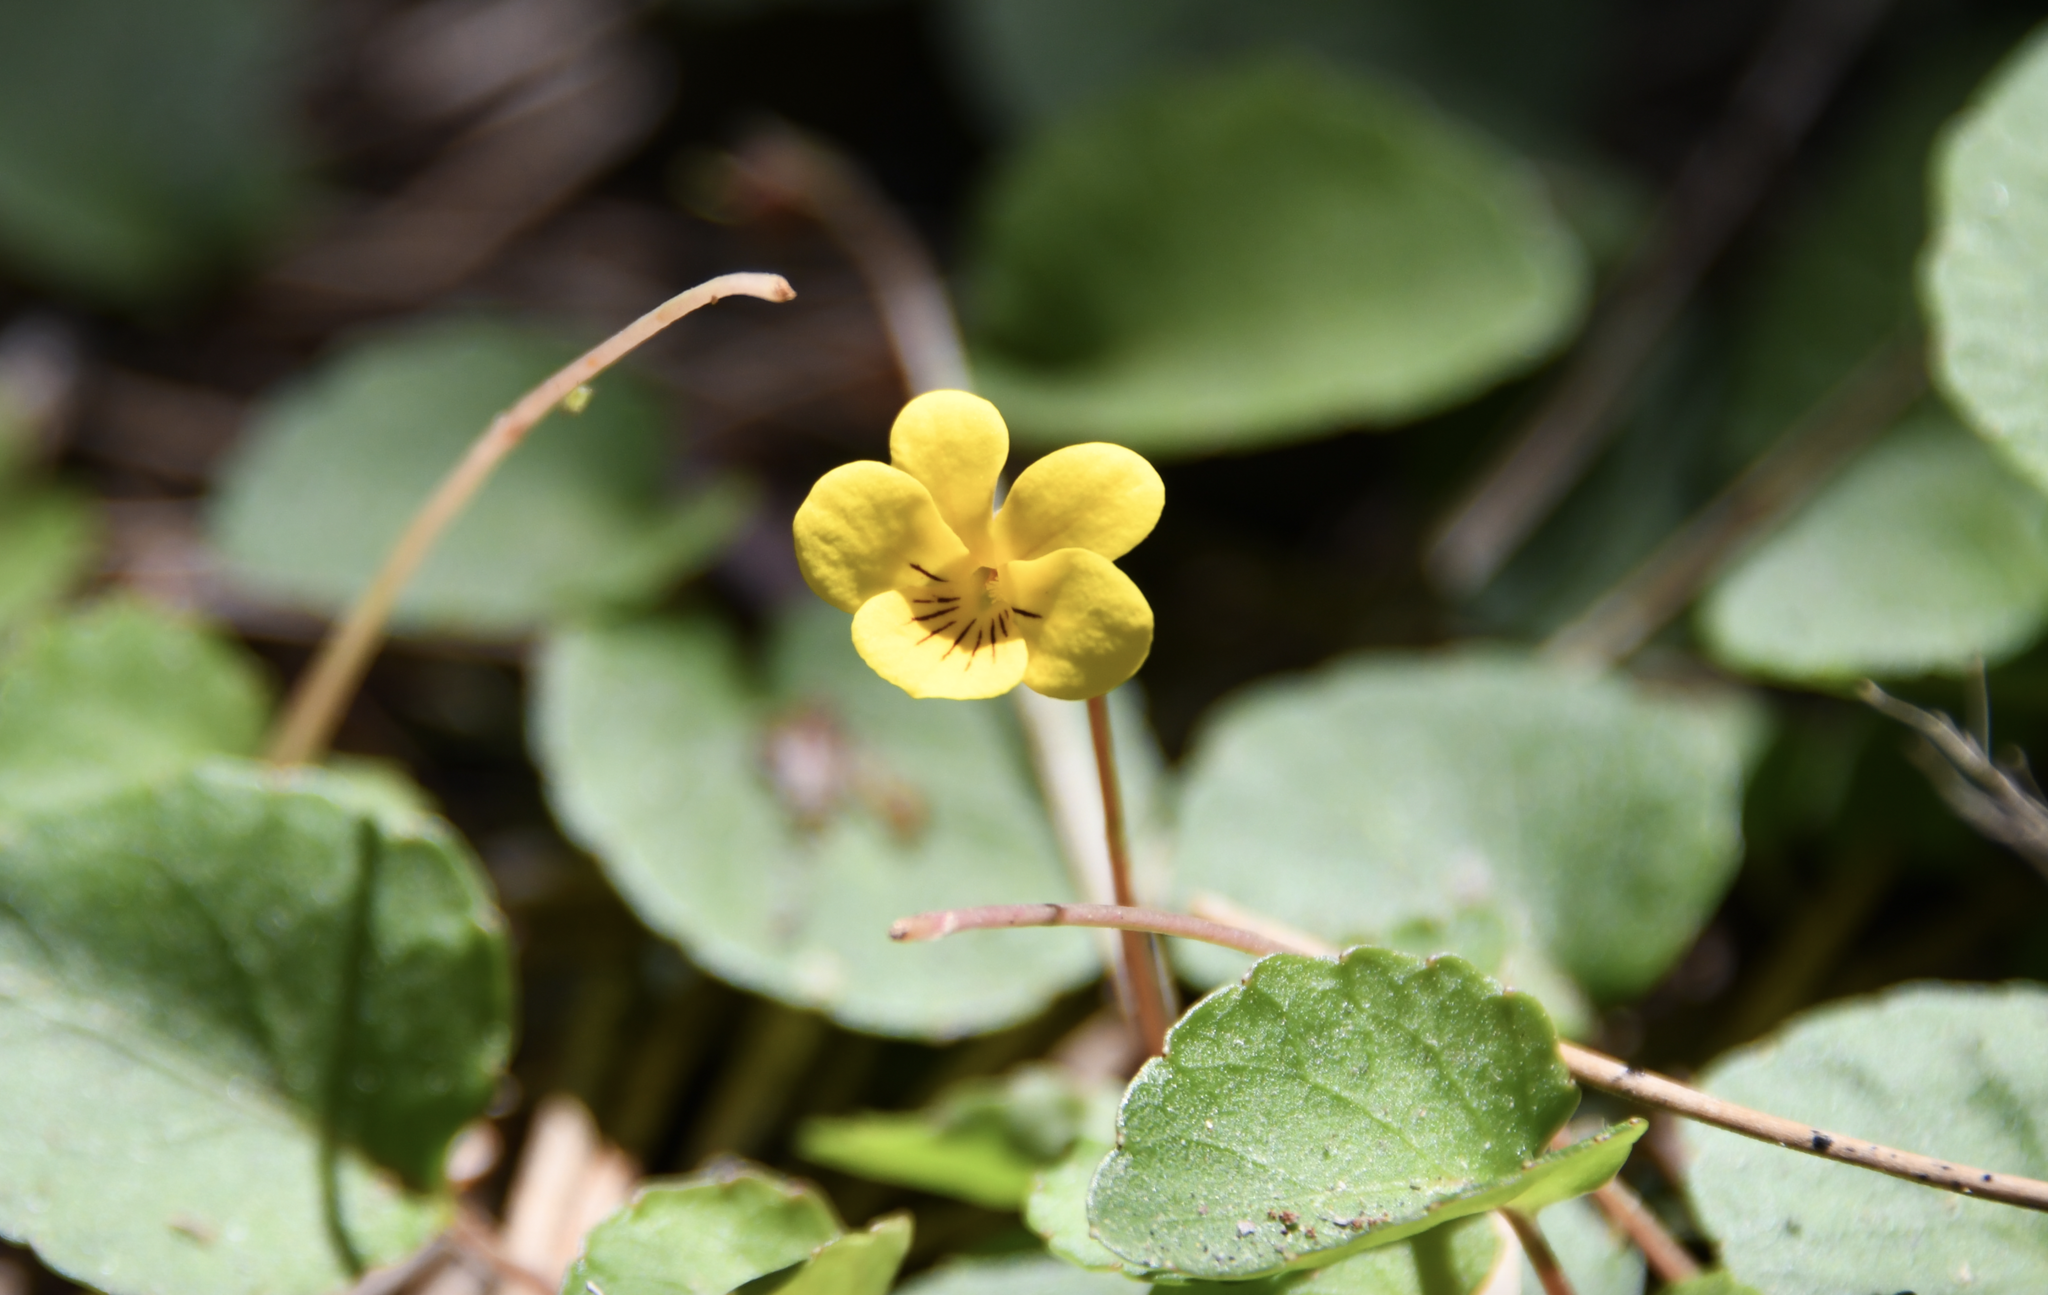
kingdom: Plantae
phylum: Tracheophyta
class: Magnoliopsida
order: Malpighiales
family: Violaceae
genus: Viola
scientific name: Viola sempervirens
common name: Evergreen violet
